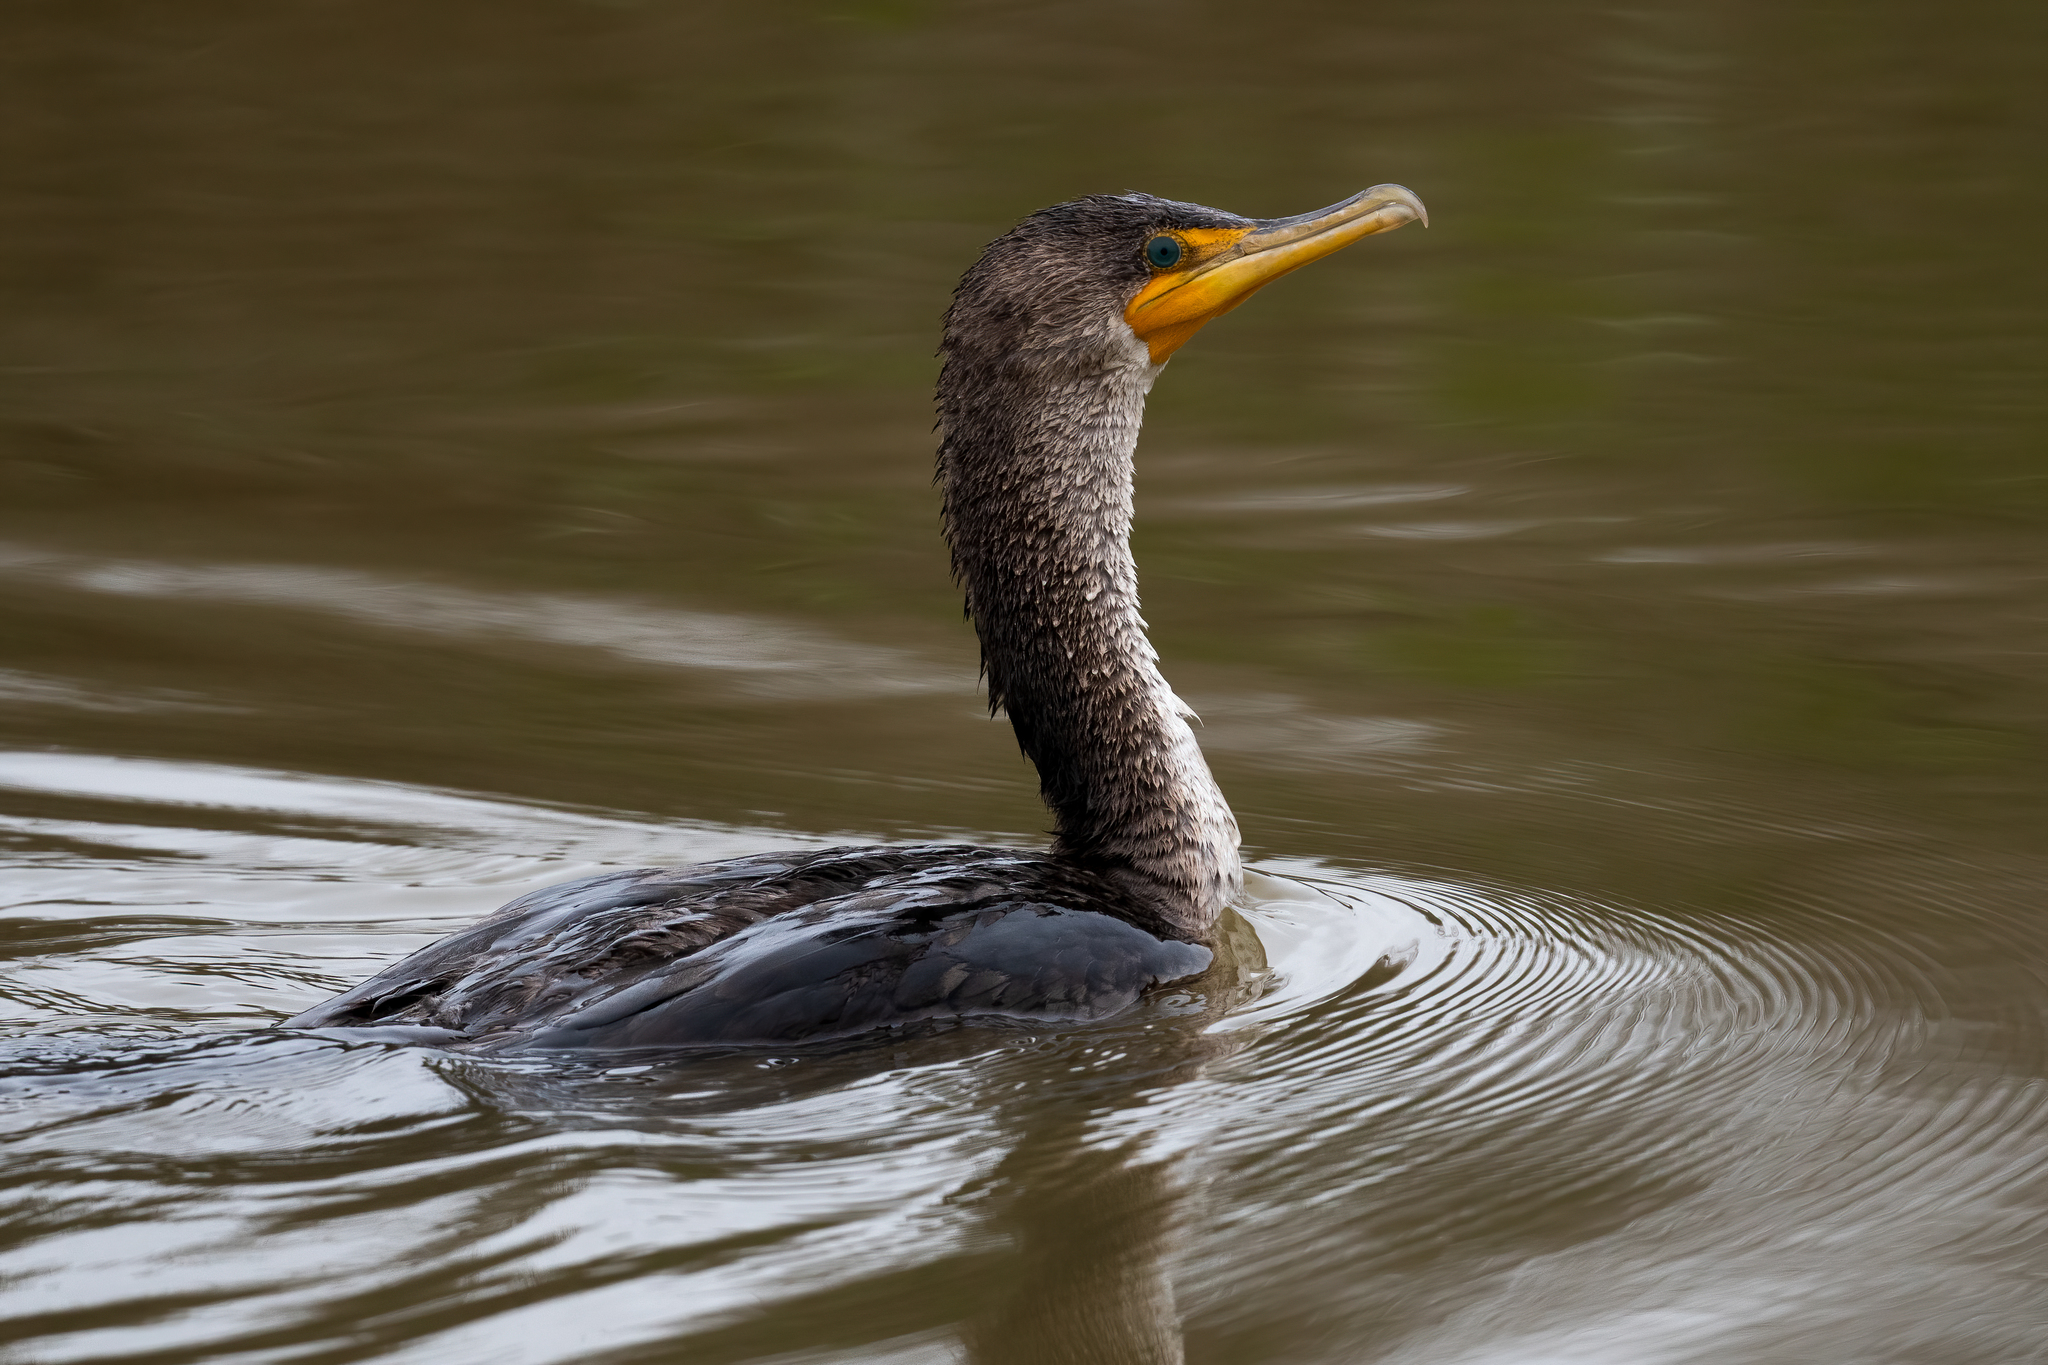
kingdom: Animalia
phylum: Chordata
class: Aves
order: Suliformes
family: Phalacrocoracidae
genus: Phalacrocorax
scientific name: Phalacrocorax auritus
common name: Double-crested cormorant
